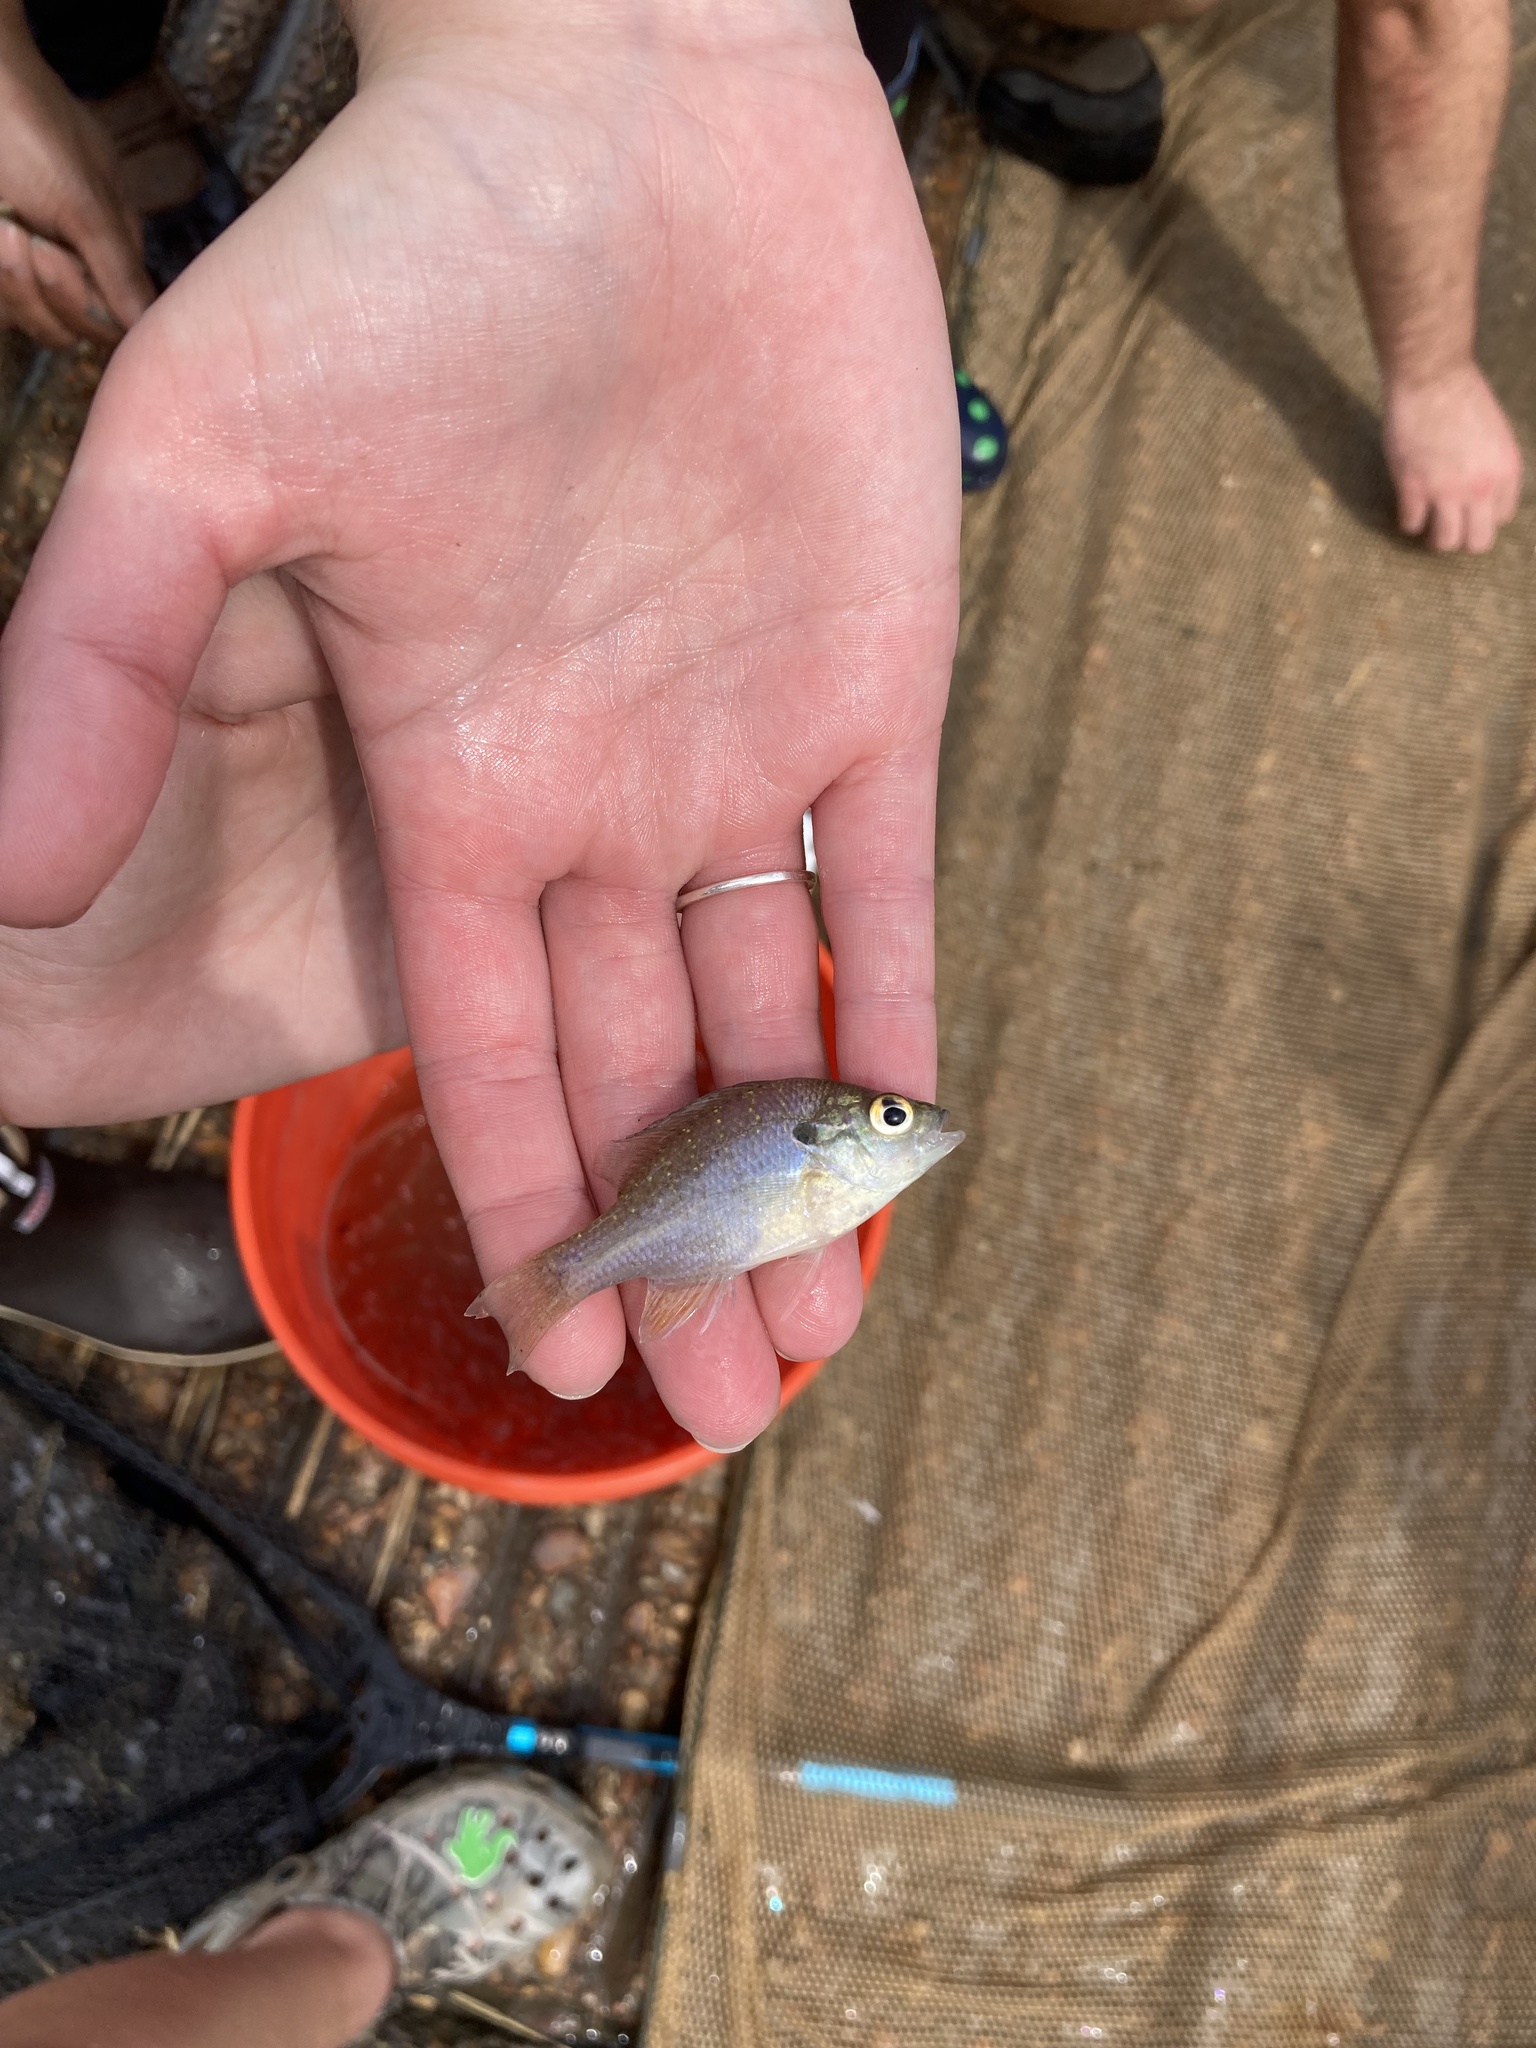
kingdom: Animalia
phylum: Chordata
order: Perciformes
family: Centrarchidae
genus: Lepomis
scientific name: Lepomis aquilensis
